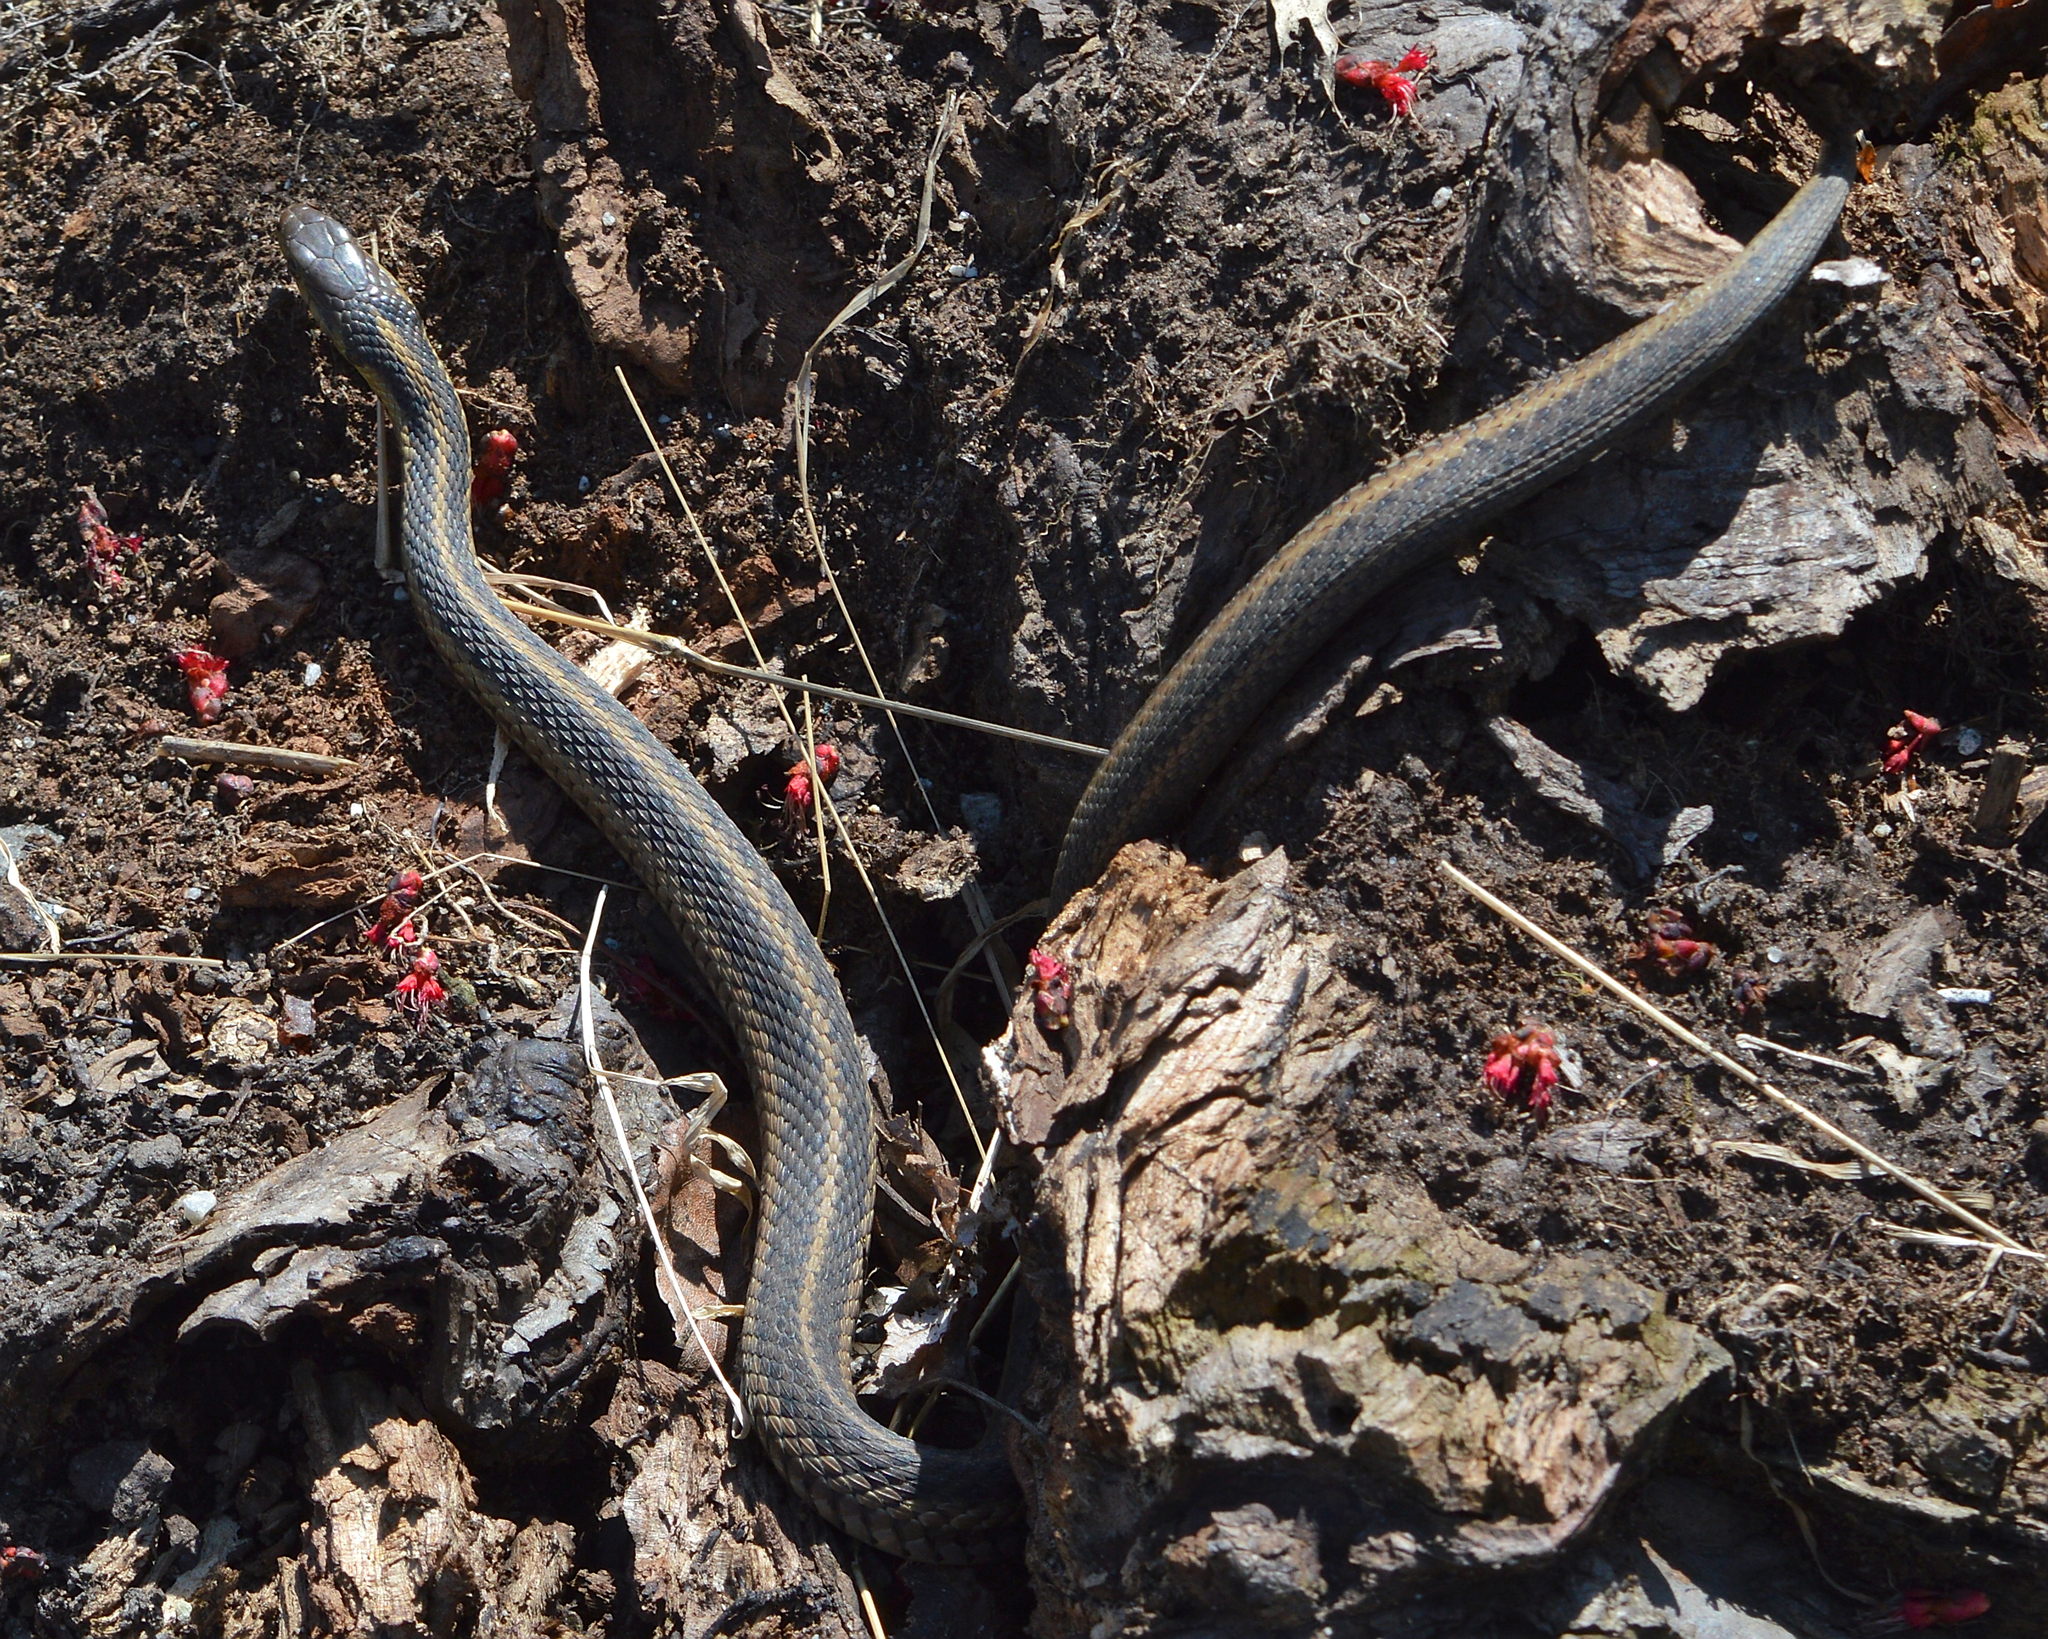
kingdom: Animalia
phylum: Chordata
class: Squamata
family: Colubridae
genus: Thamnophis
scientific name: Thamnophis sirtalis
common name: Common garter snake
